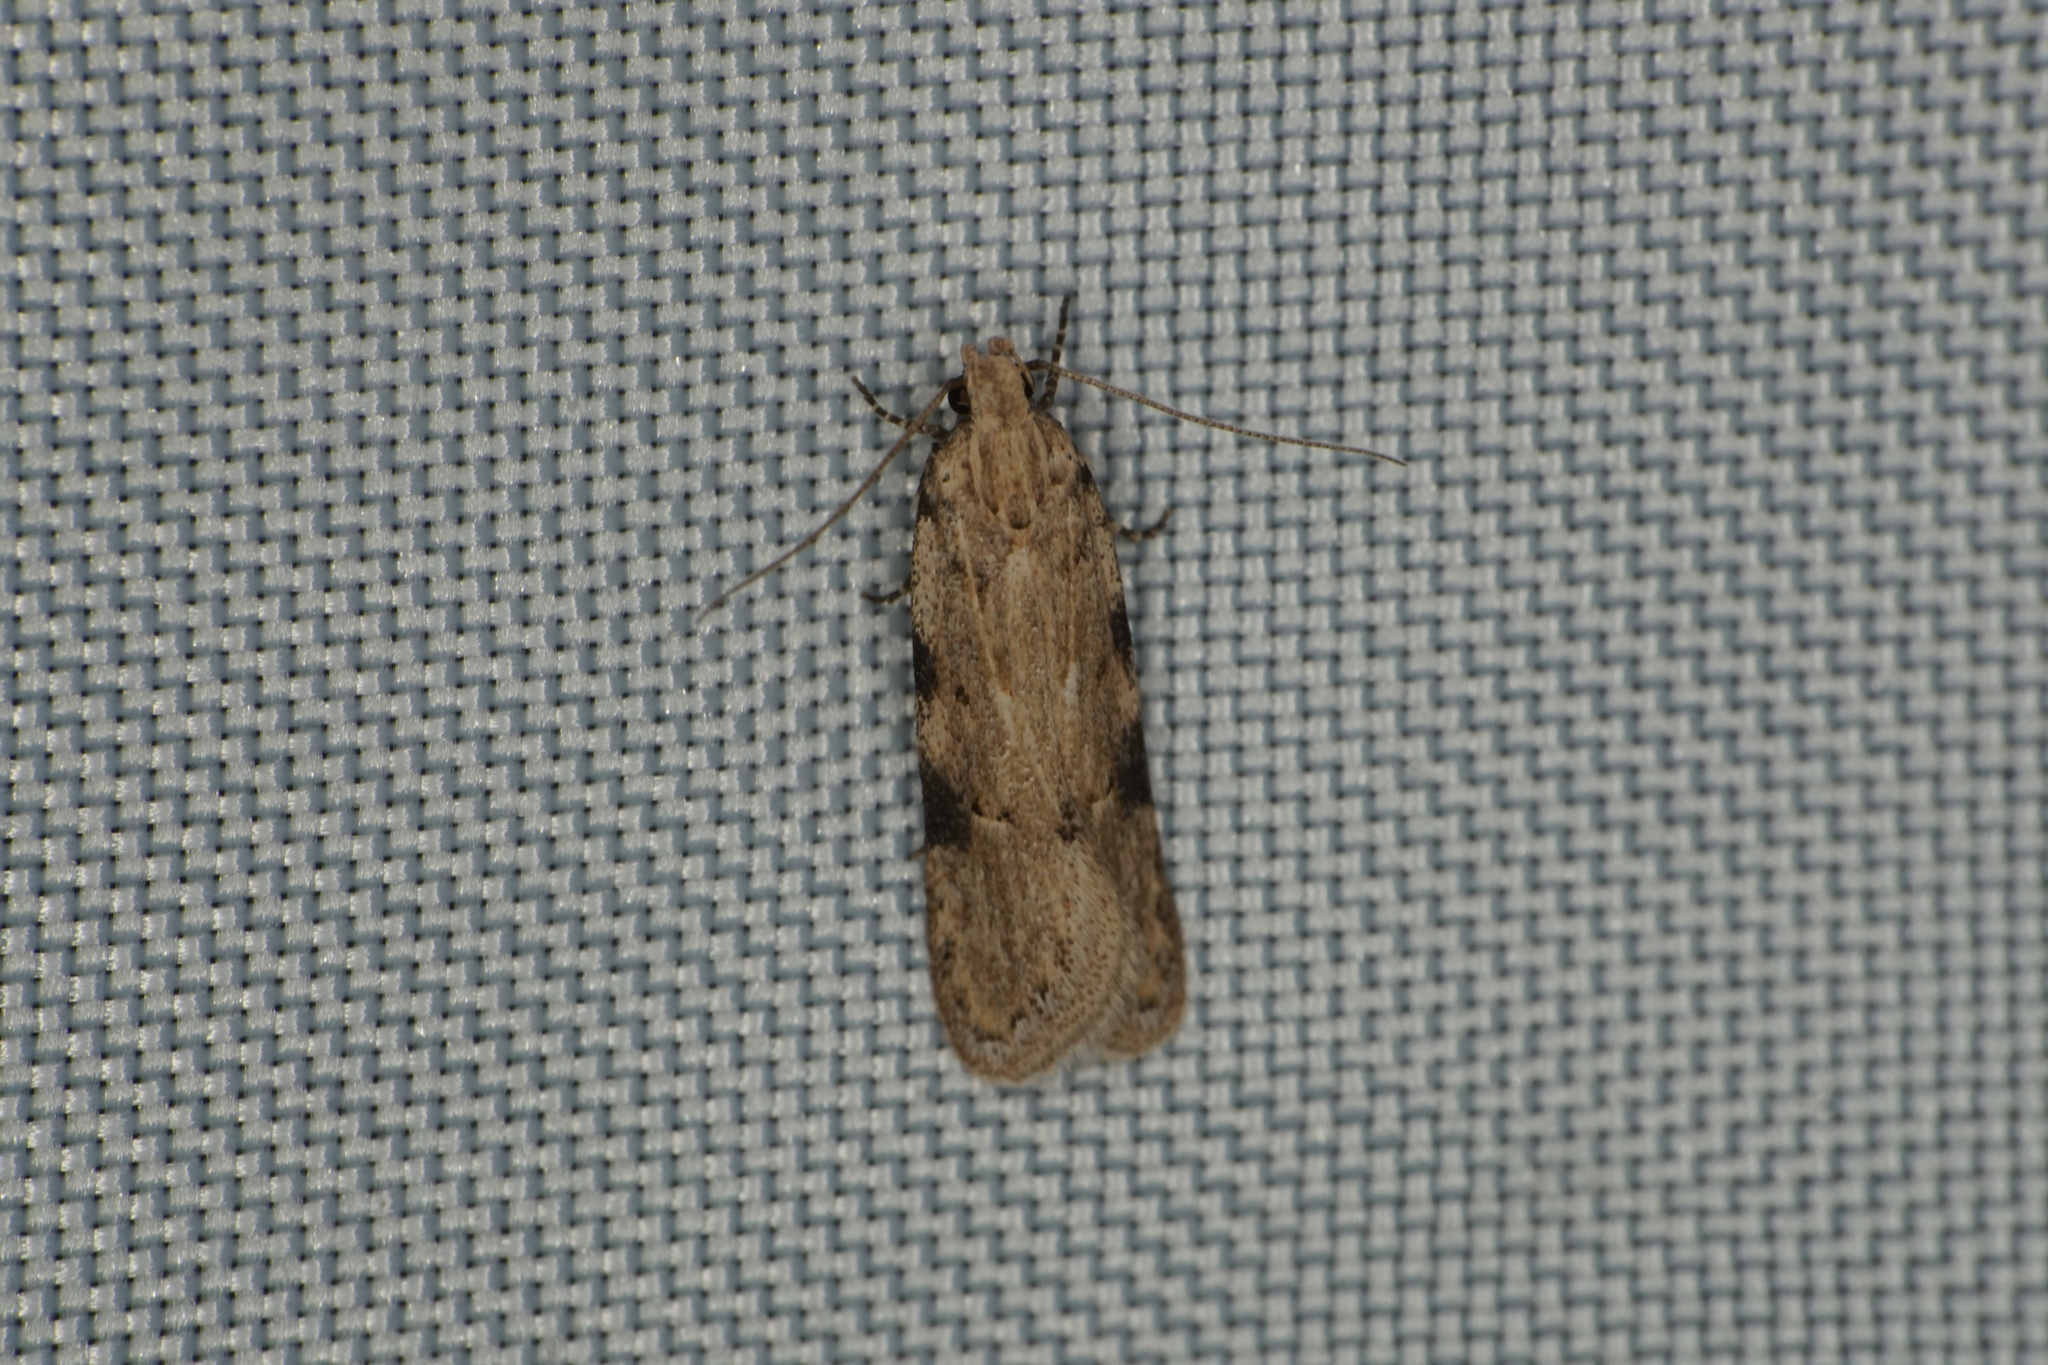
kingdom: Animalia
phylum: Arthropoda
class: Insecta
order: Lepidoptera
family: Gelechiidae
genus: Friseria
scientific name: Friseria cockerelli
